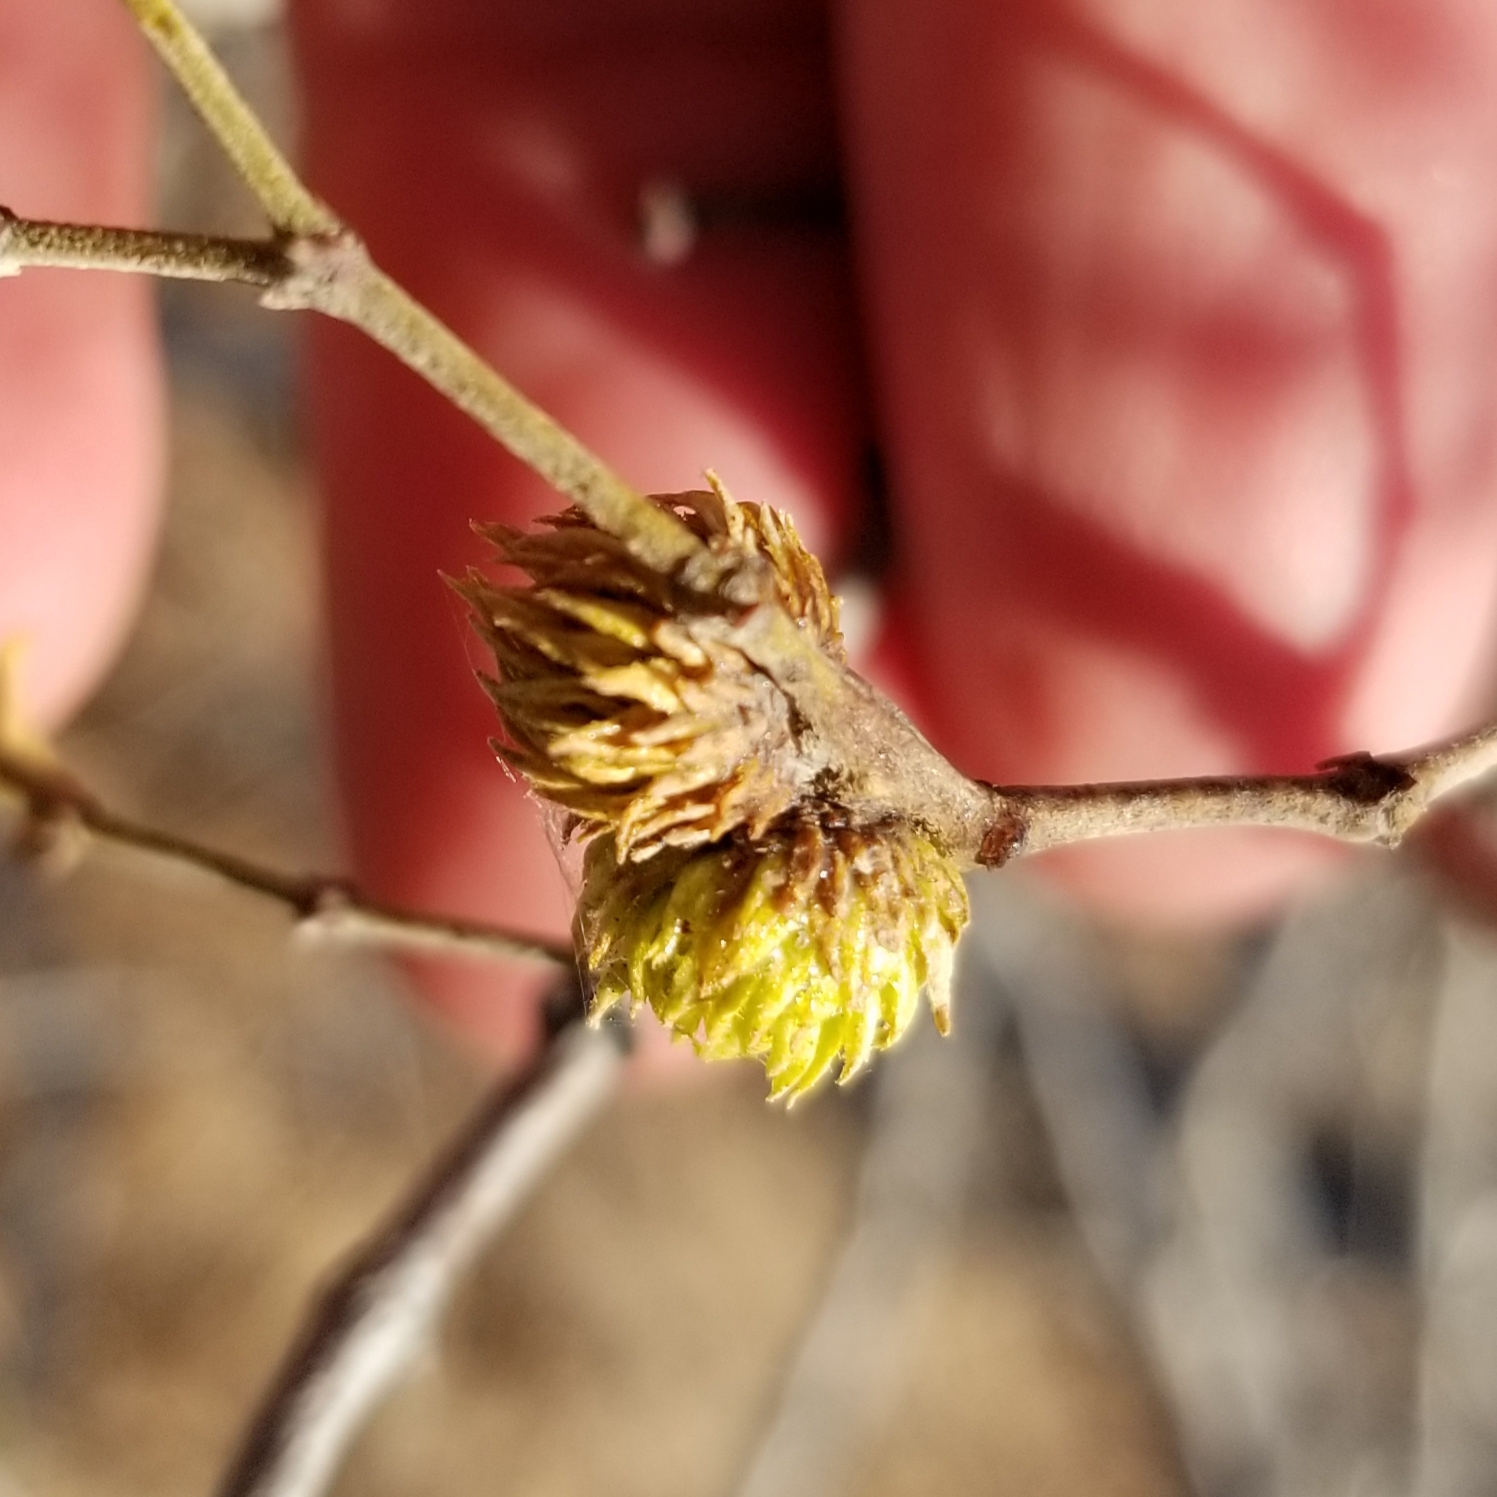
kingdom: Animalia
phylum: Arthropoda
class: Insecta
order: Diptera
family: Cecidomyiidae
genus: Asphondylia
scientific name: Asphondylia foliosa
